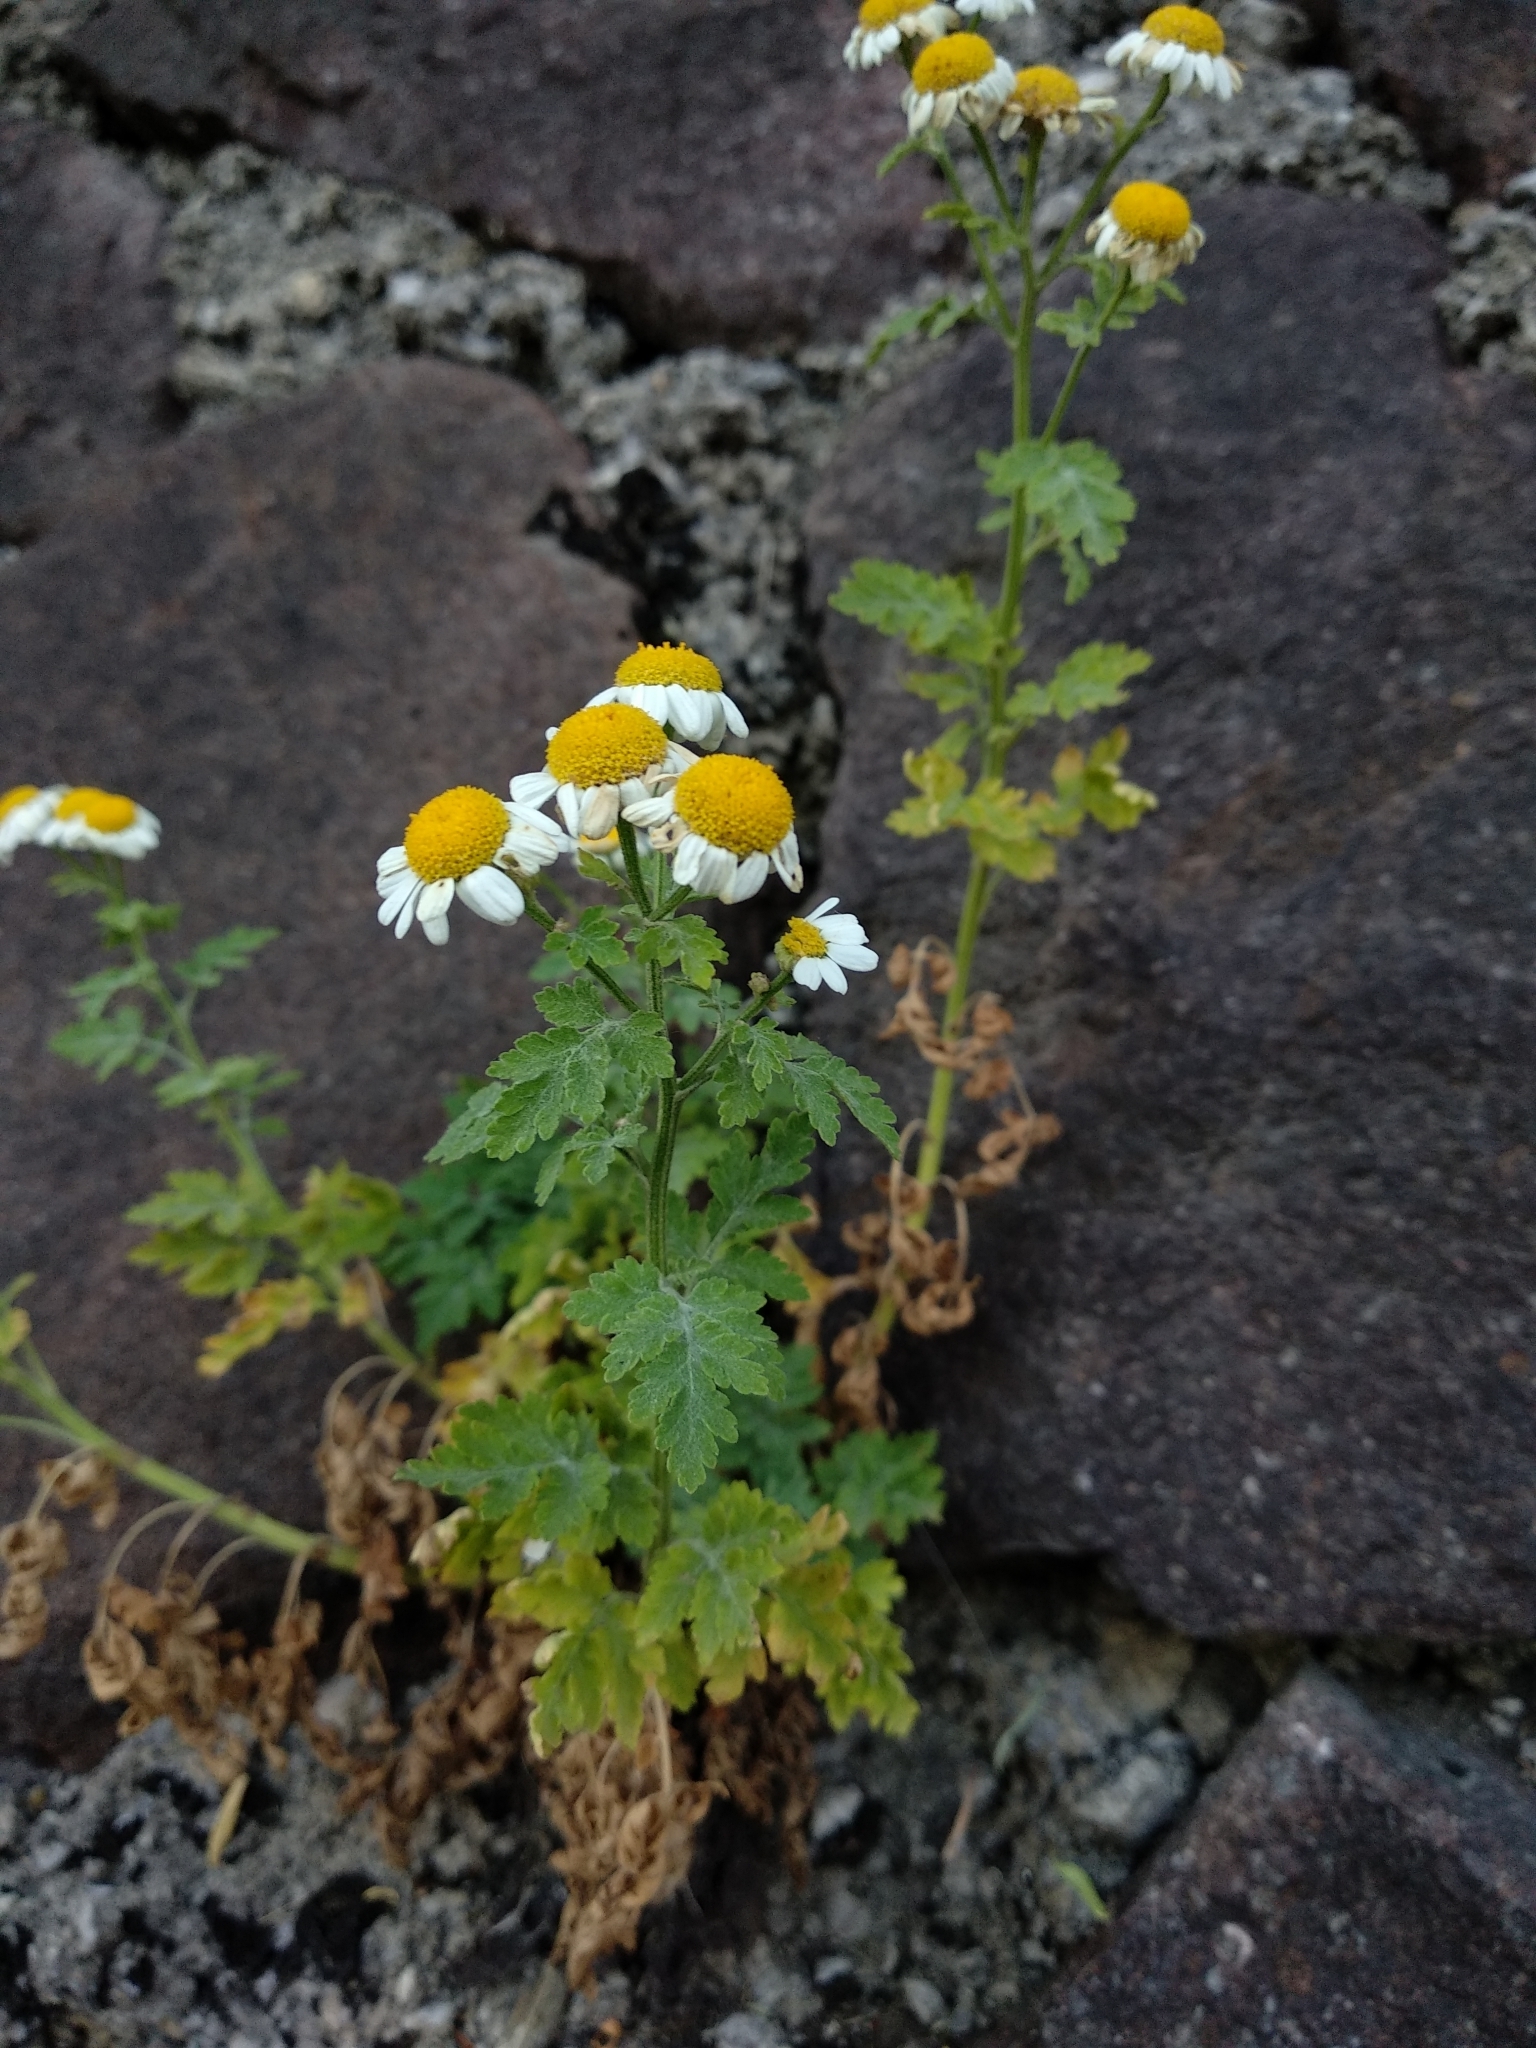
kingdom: Plantae
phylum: Tracheophyta
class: Magnoliopsida
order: Asterales
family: Asteraceae
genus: Tanacetum
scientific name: Tanacetum parthenium
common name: Feverfew
